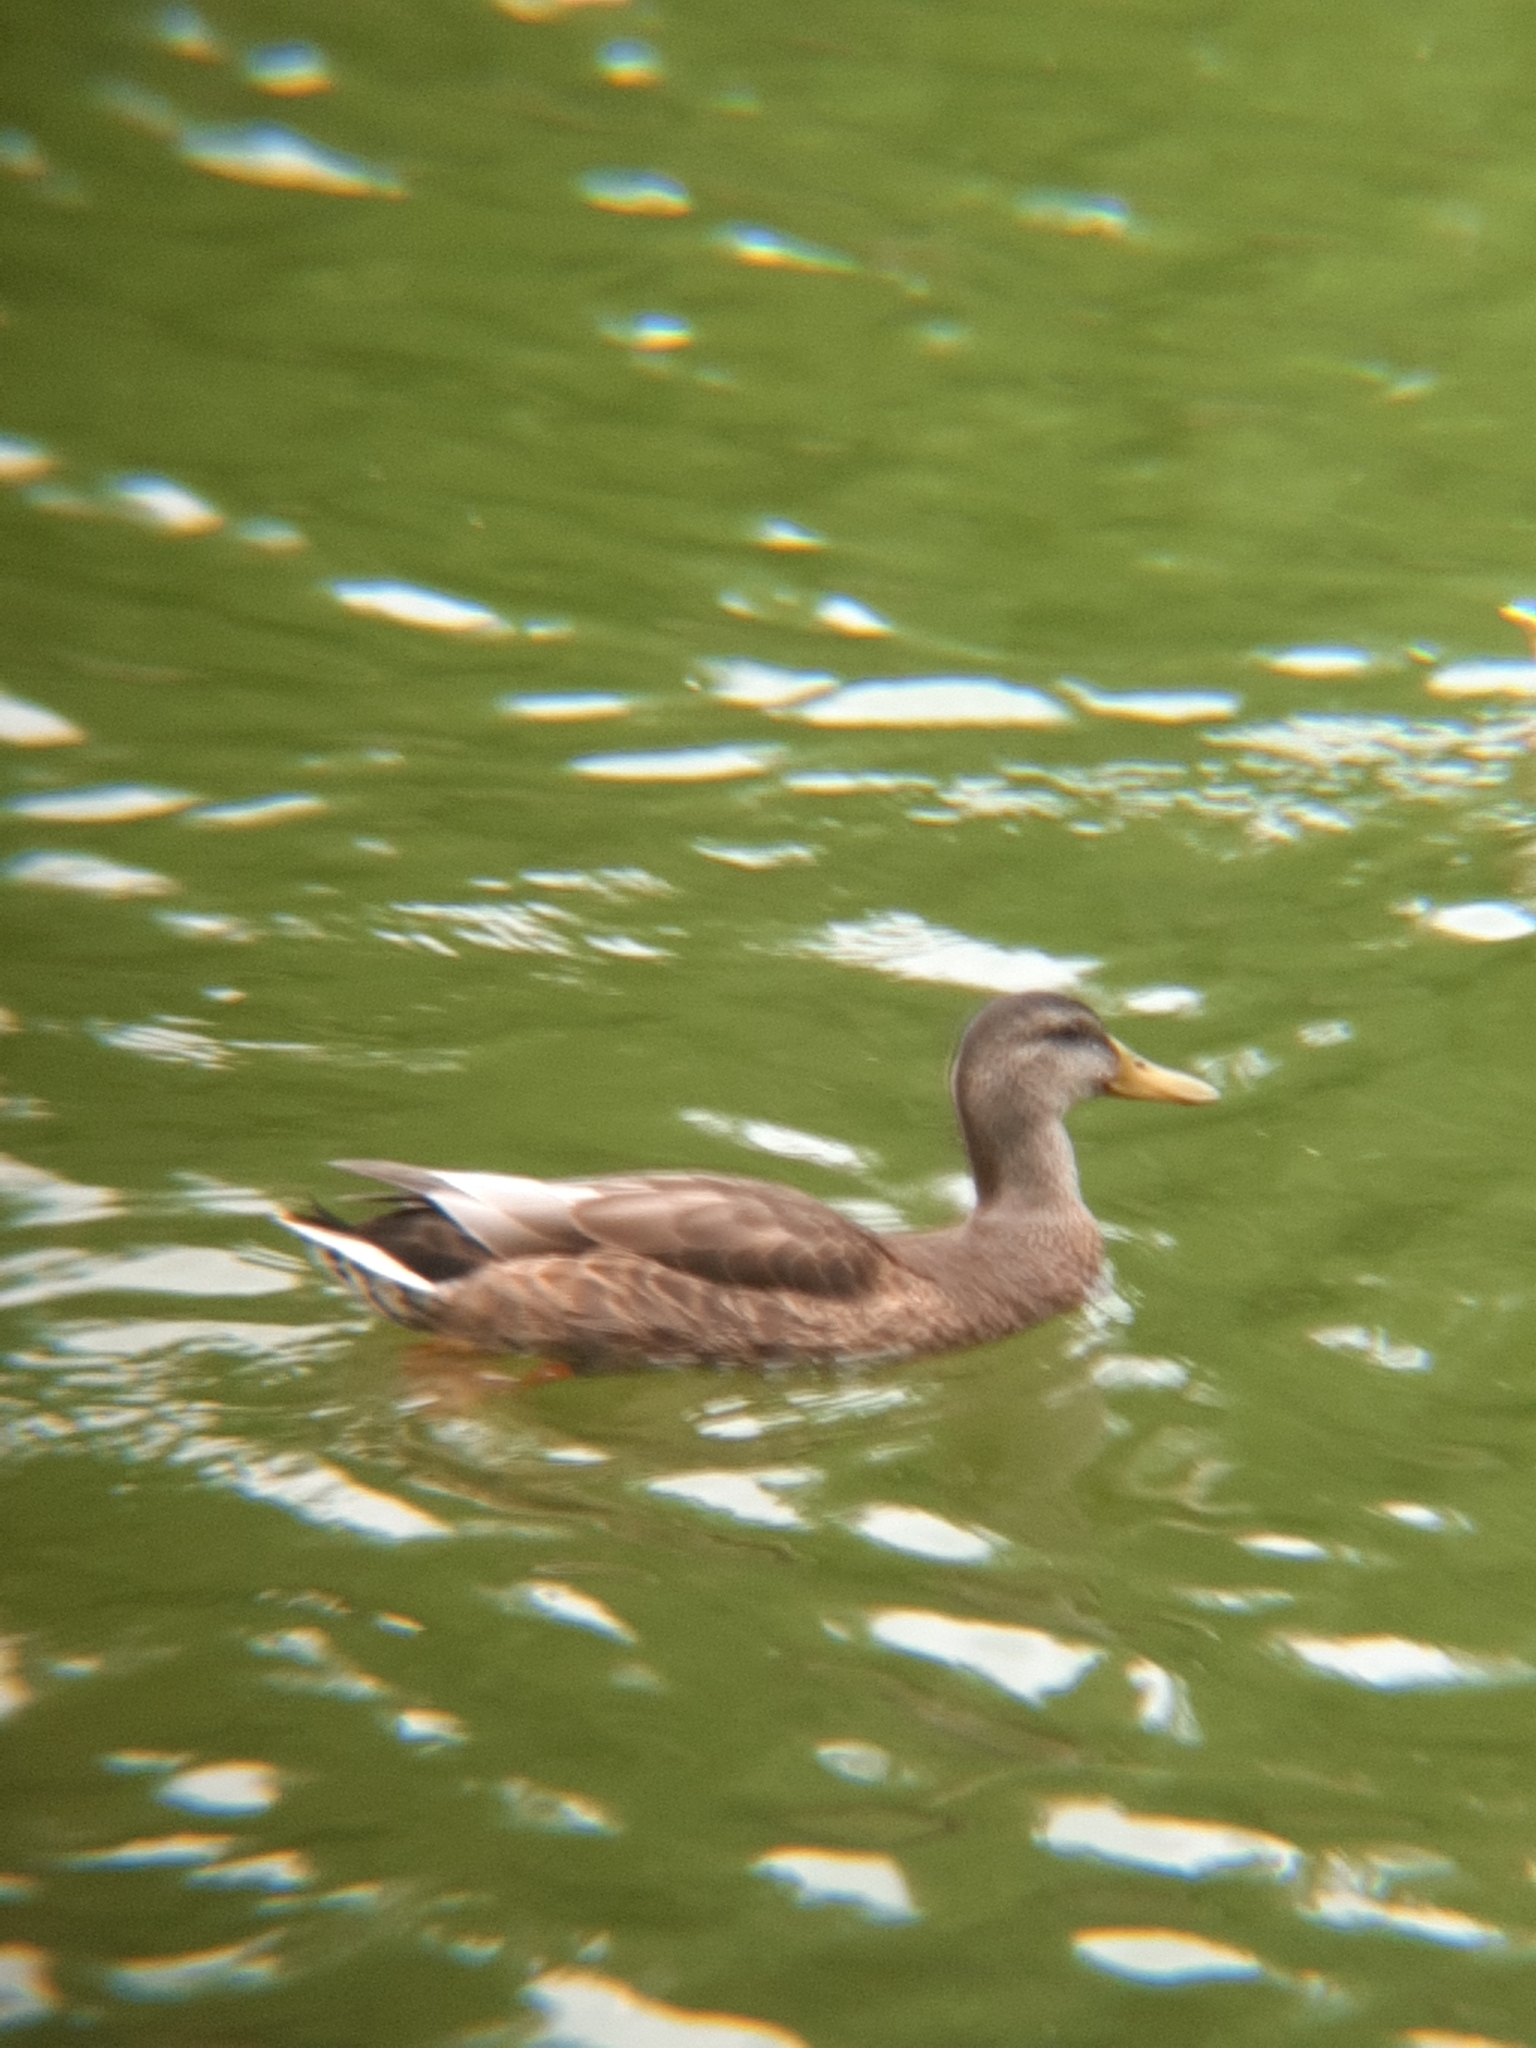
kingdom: Animalia
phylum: Chordata
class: Aves
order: Anseriformes
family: Anatidae
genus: Anas
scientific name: Anas platyrhynchos
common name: Mallard
